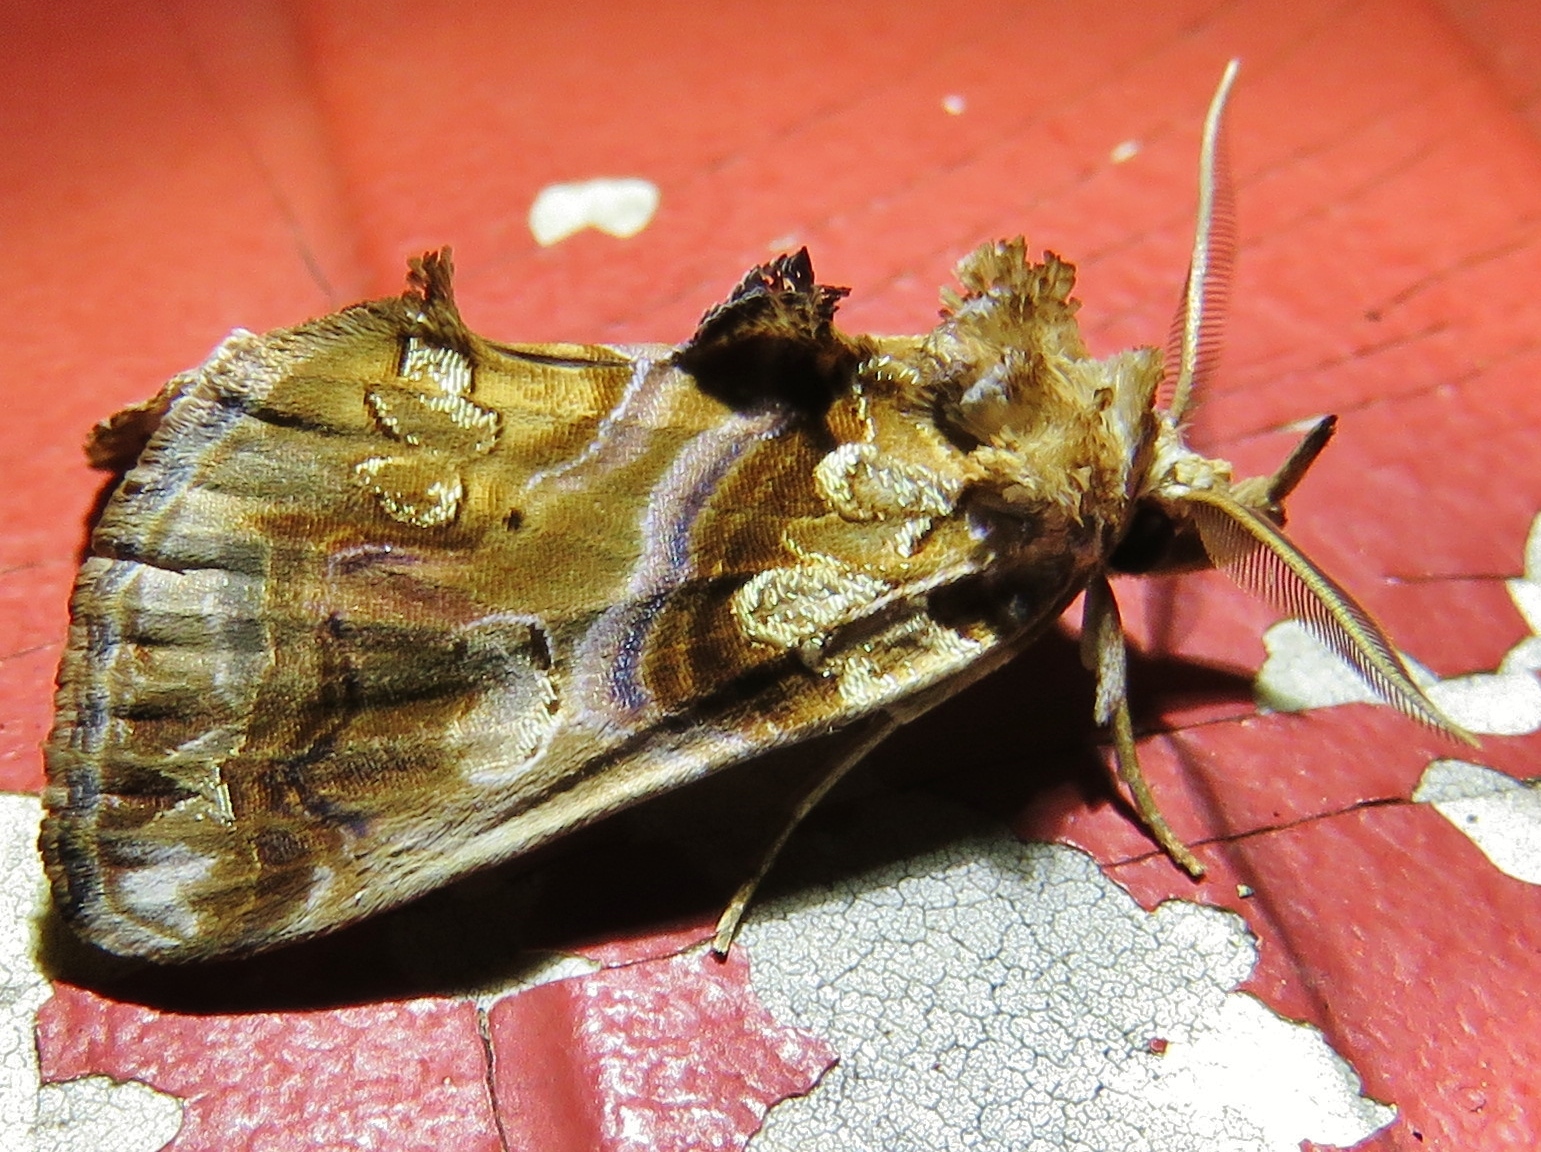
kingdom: Animalia
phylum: Arthropoda
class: Insecta
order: Lepidoptera
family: Erebidae
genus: Plusiodonta
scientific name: Plusiodonta compressipalpis
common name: Moonseed moth
